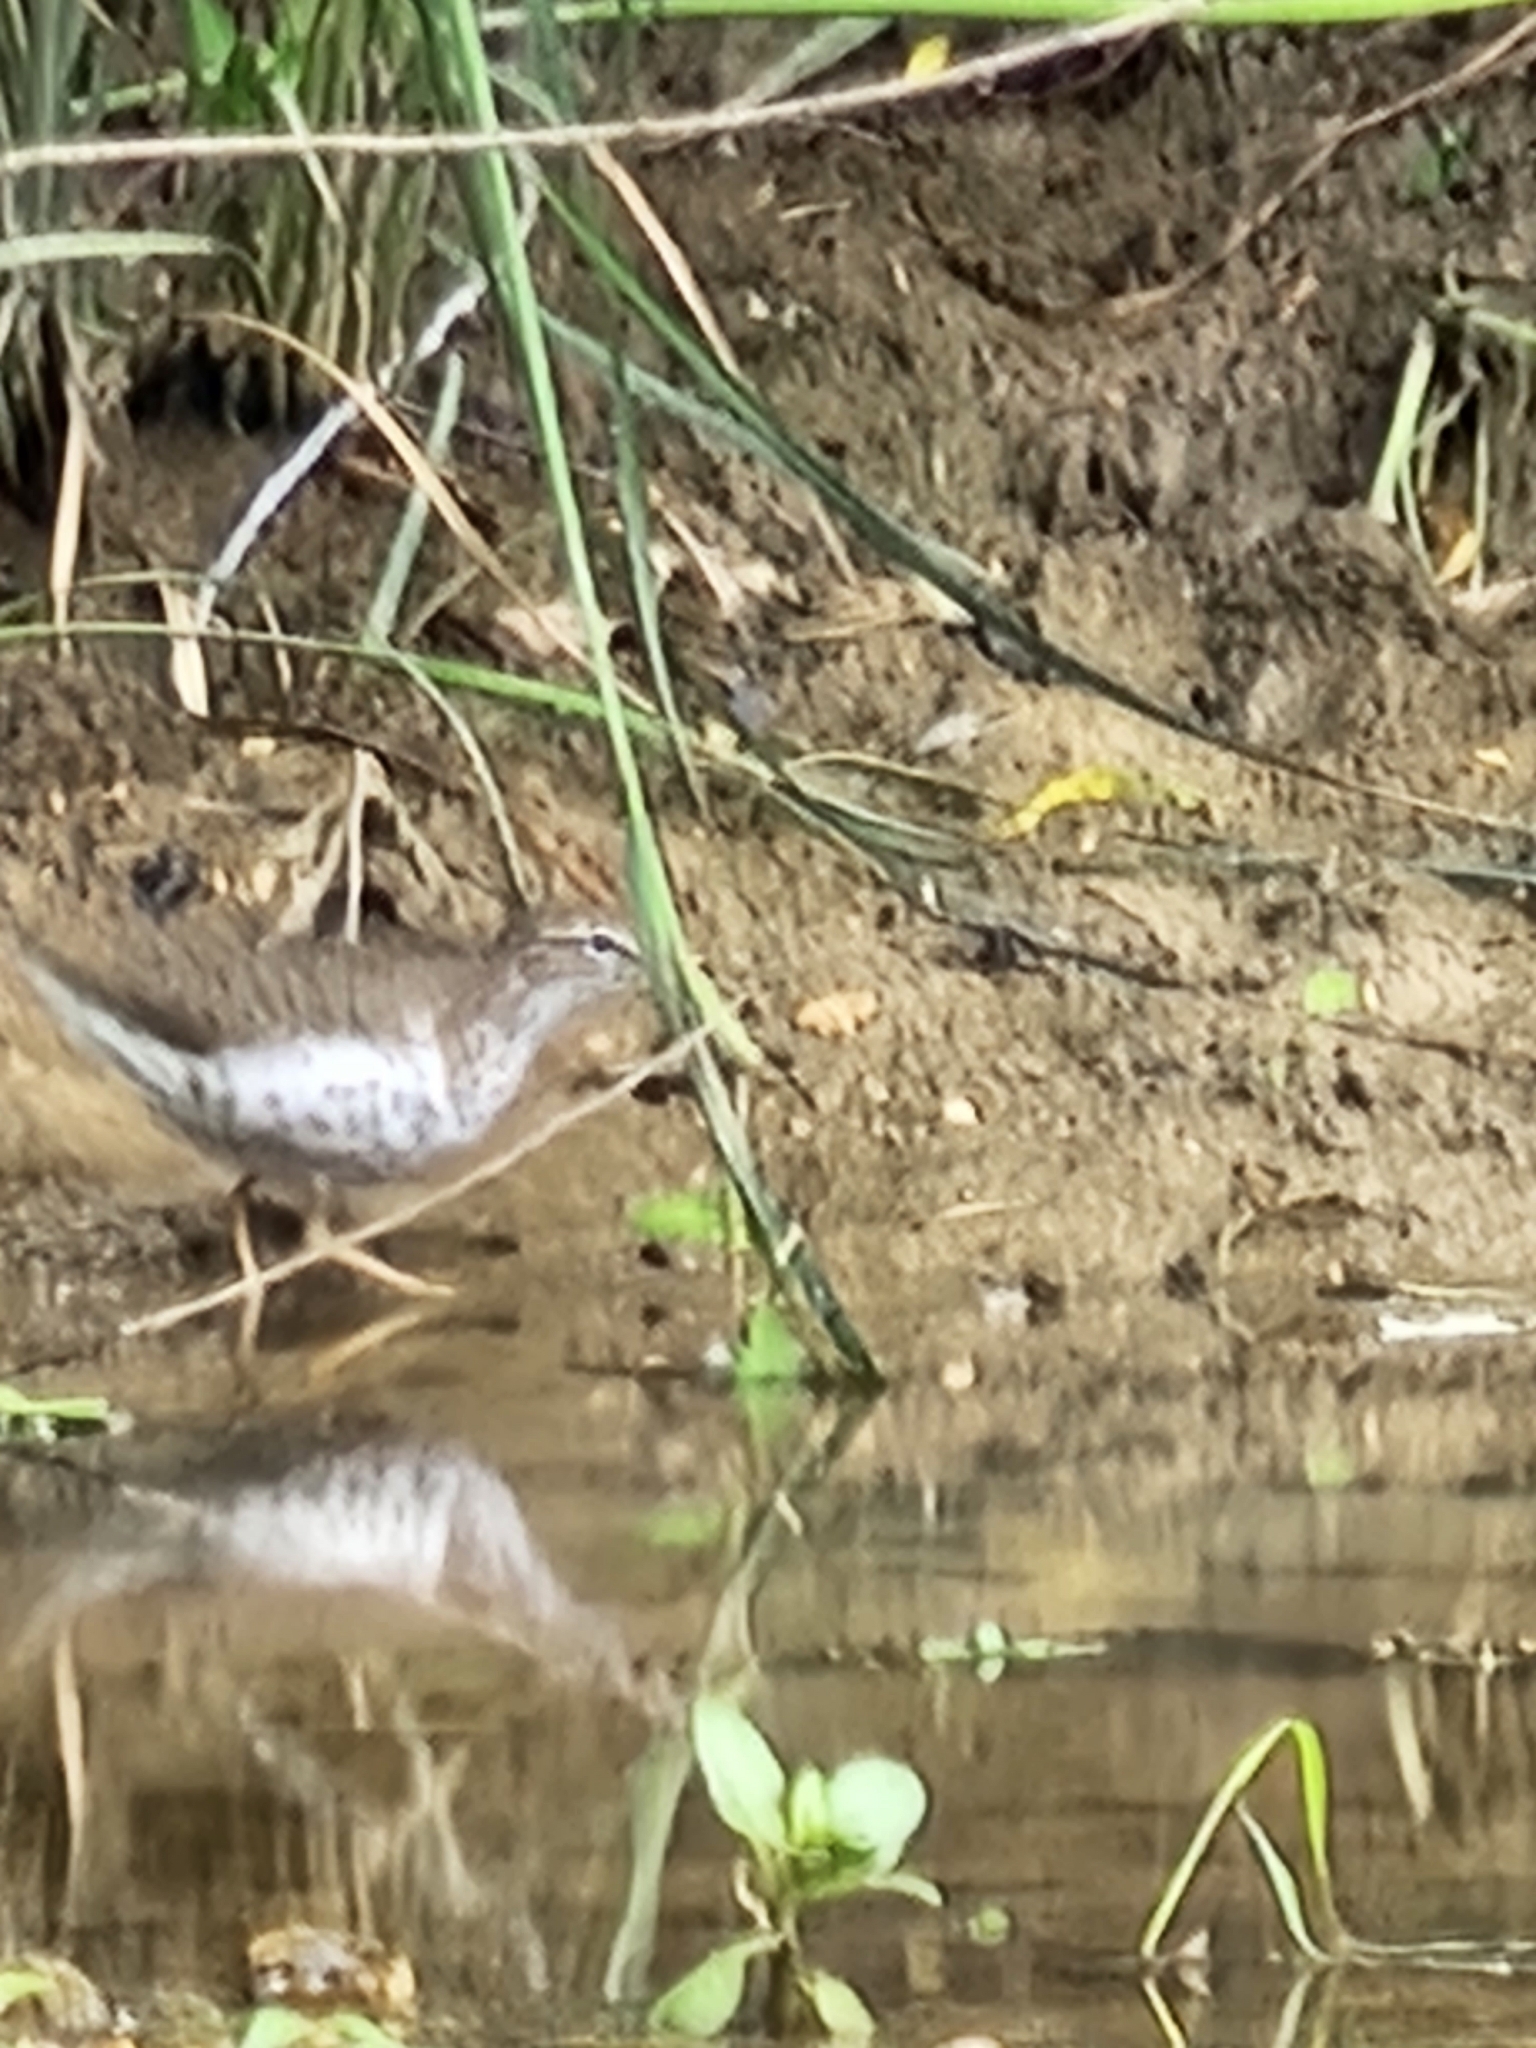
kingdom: Animalia
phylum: Chordata
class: Aves
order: Charadriiformes
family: Scolopacidae
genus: Actitis
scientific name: Actitis macularius
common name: Spotted sandpiper
